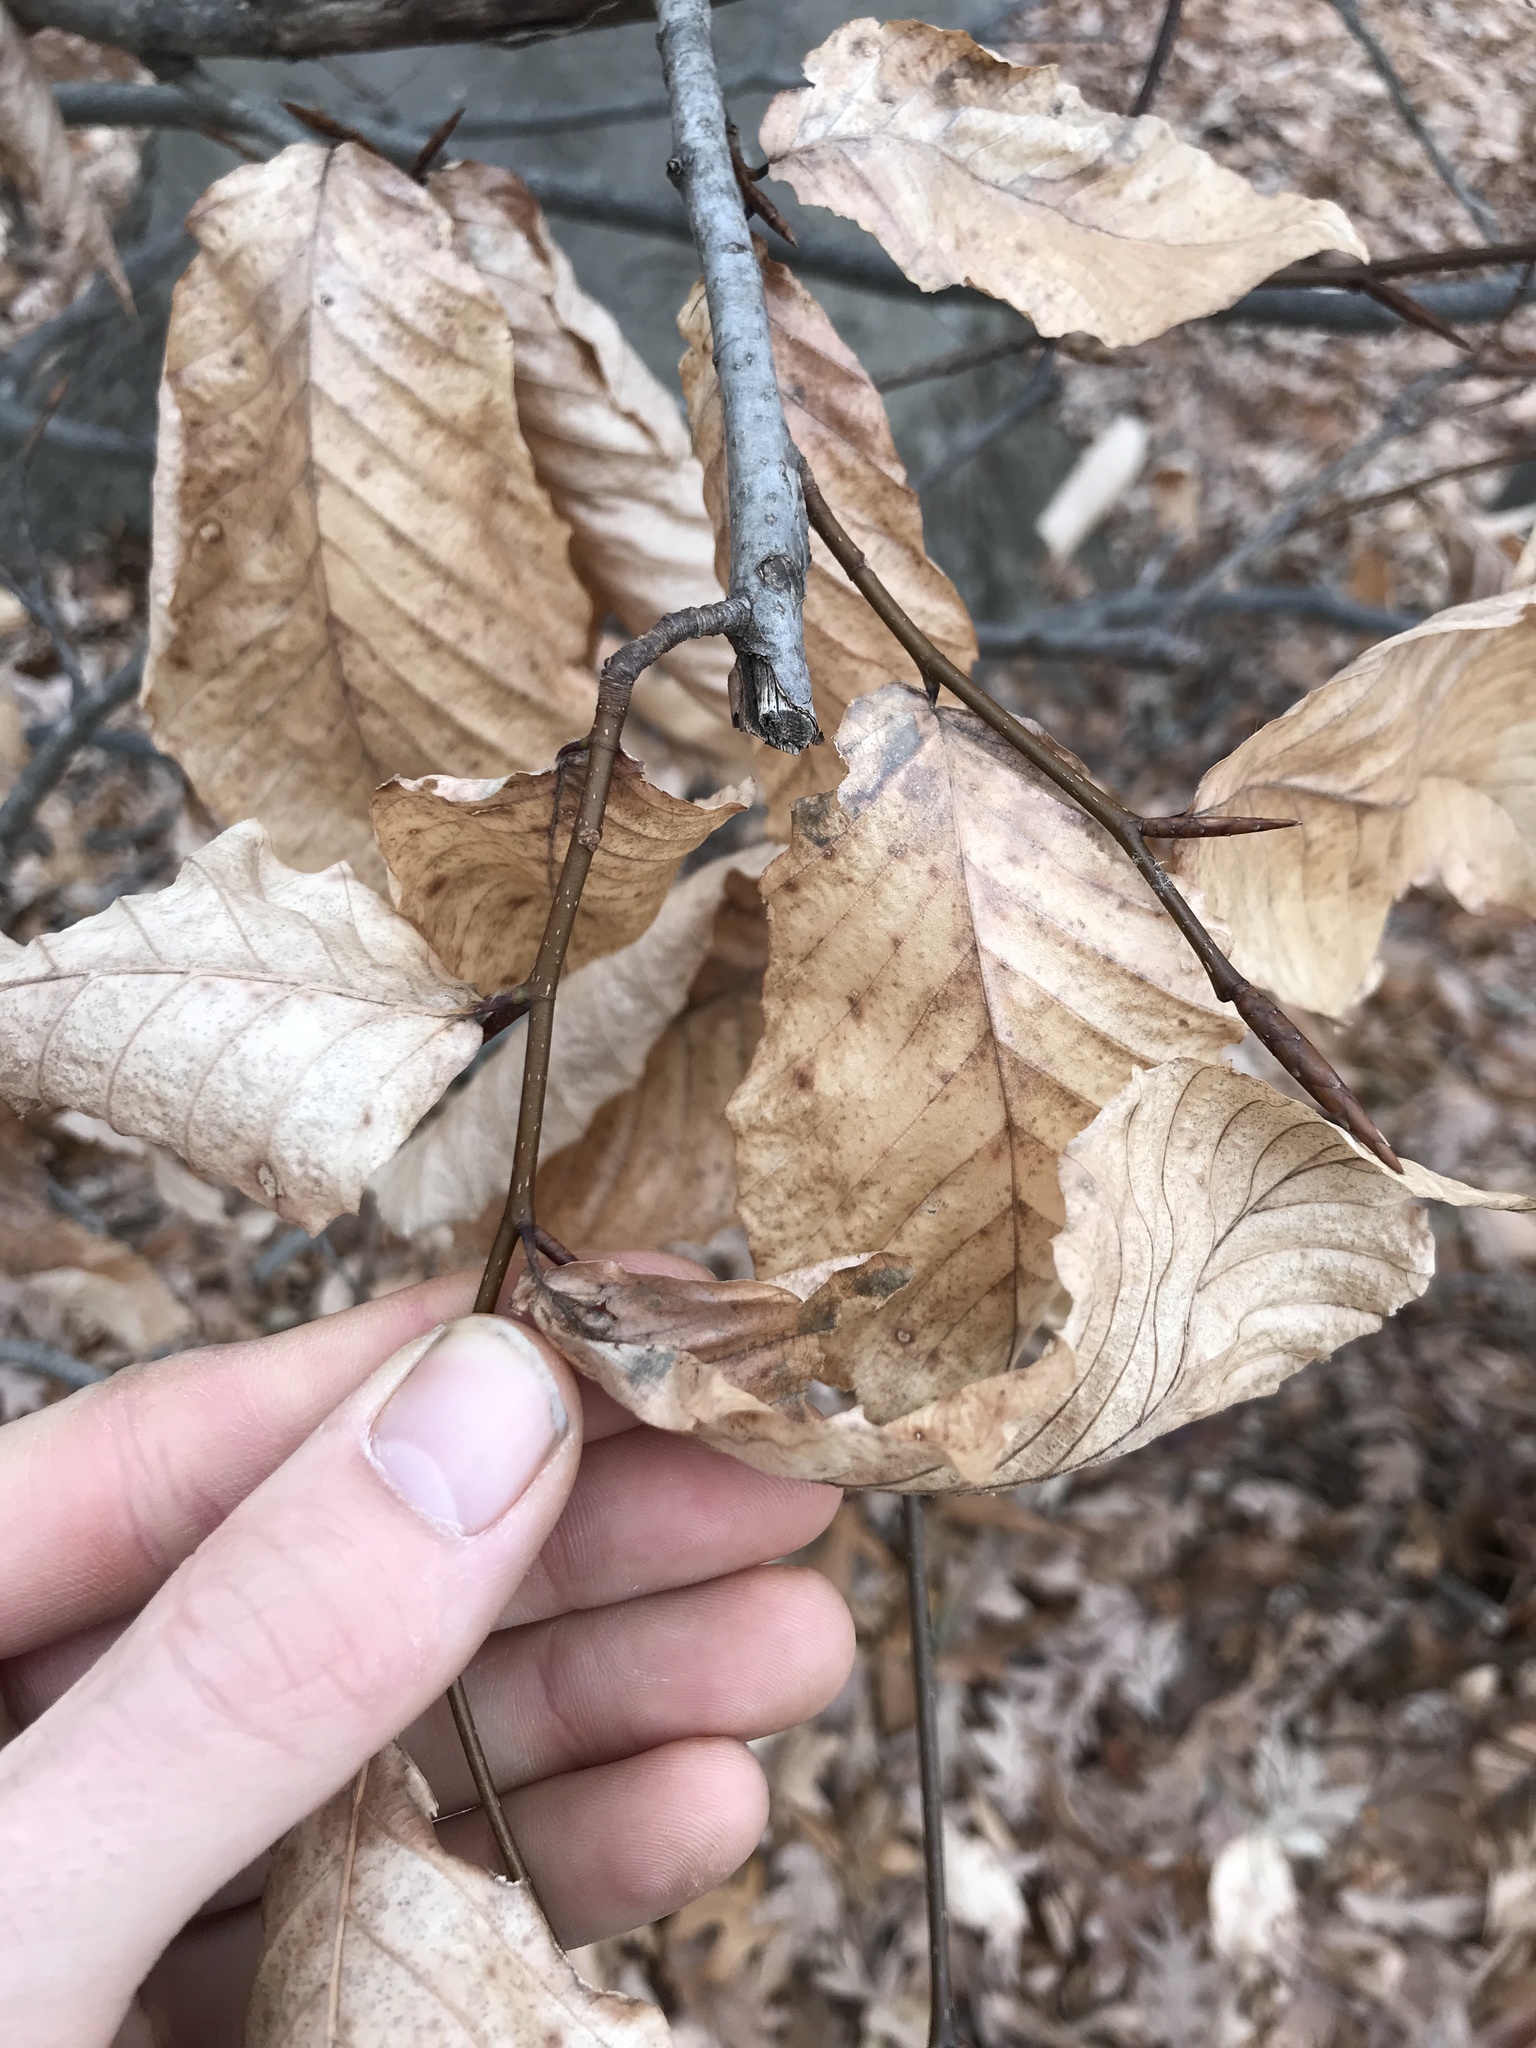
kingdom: Plantae
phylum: Tracheophyta
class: Magnoliopsida
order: Fagales
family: Fagaceae
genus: Fagus
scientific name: Fagus grandifolia
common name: American beech
